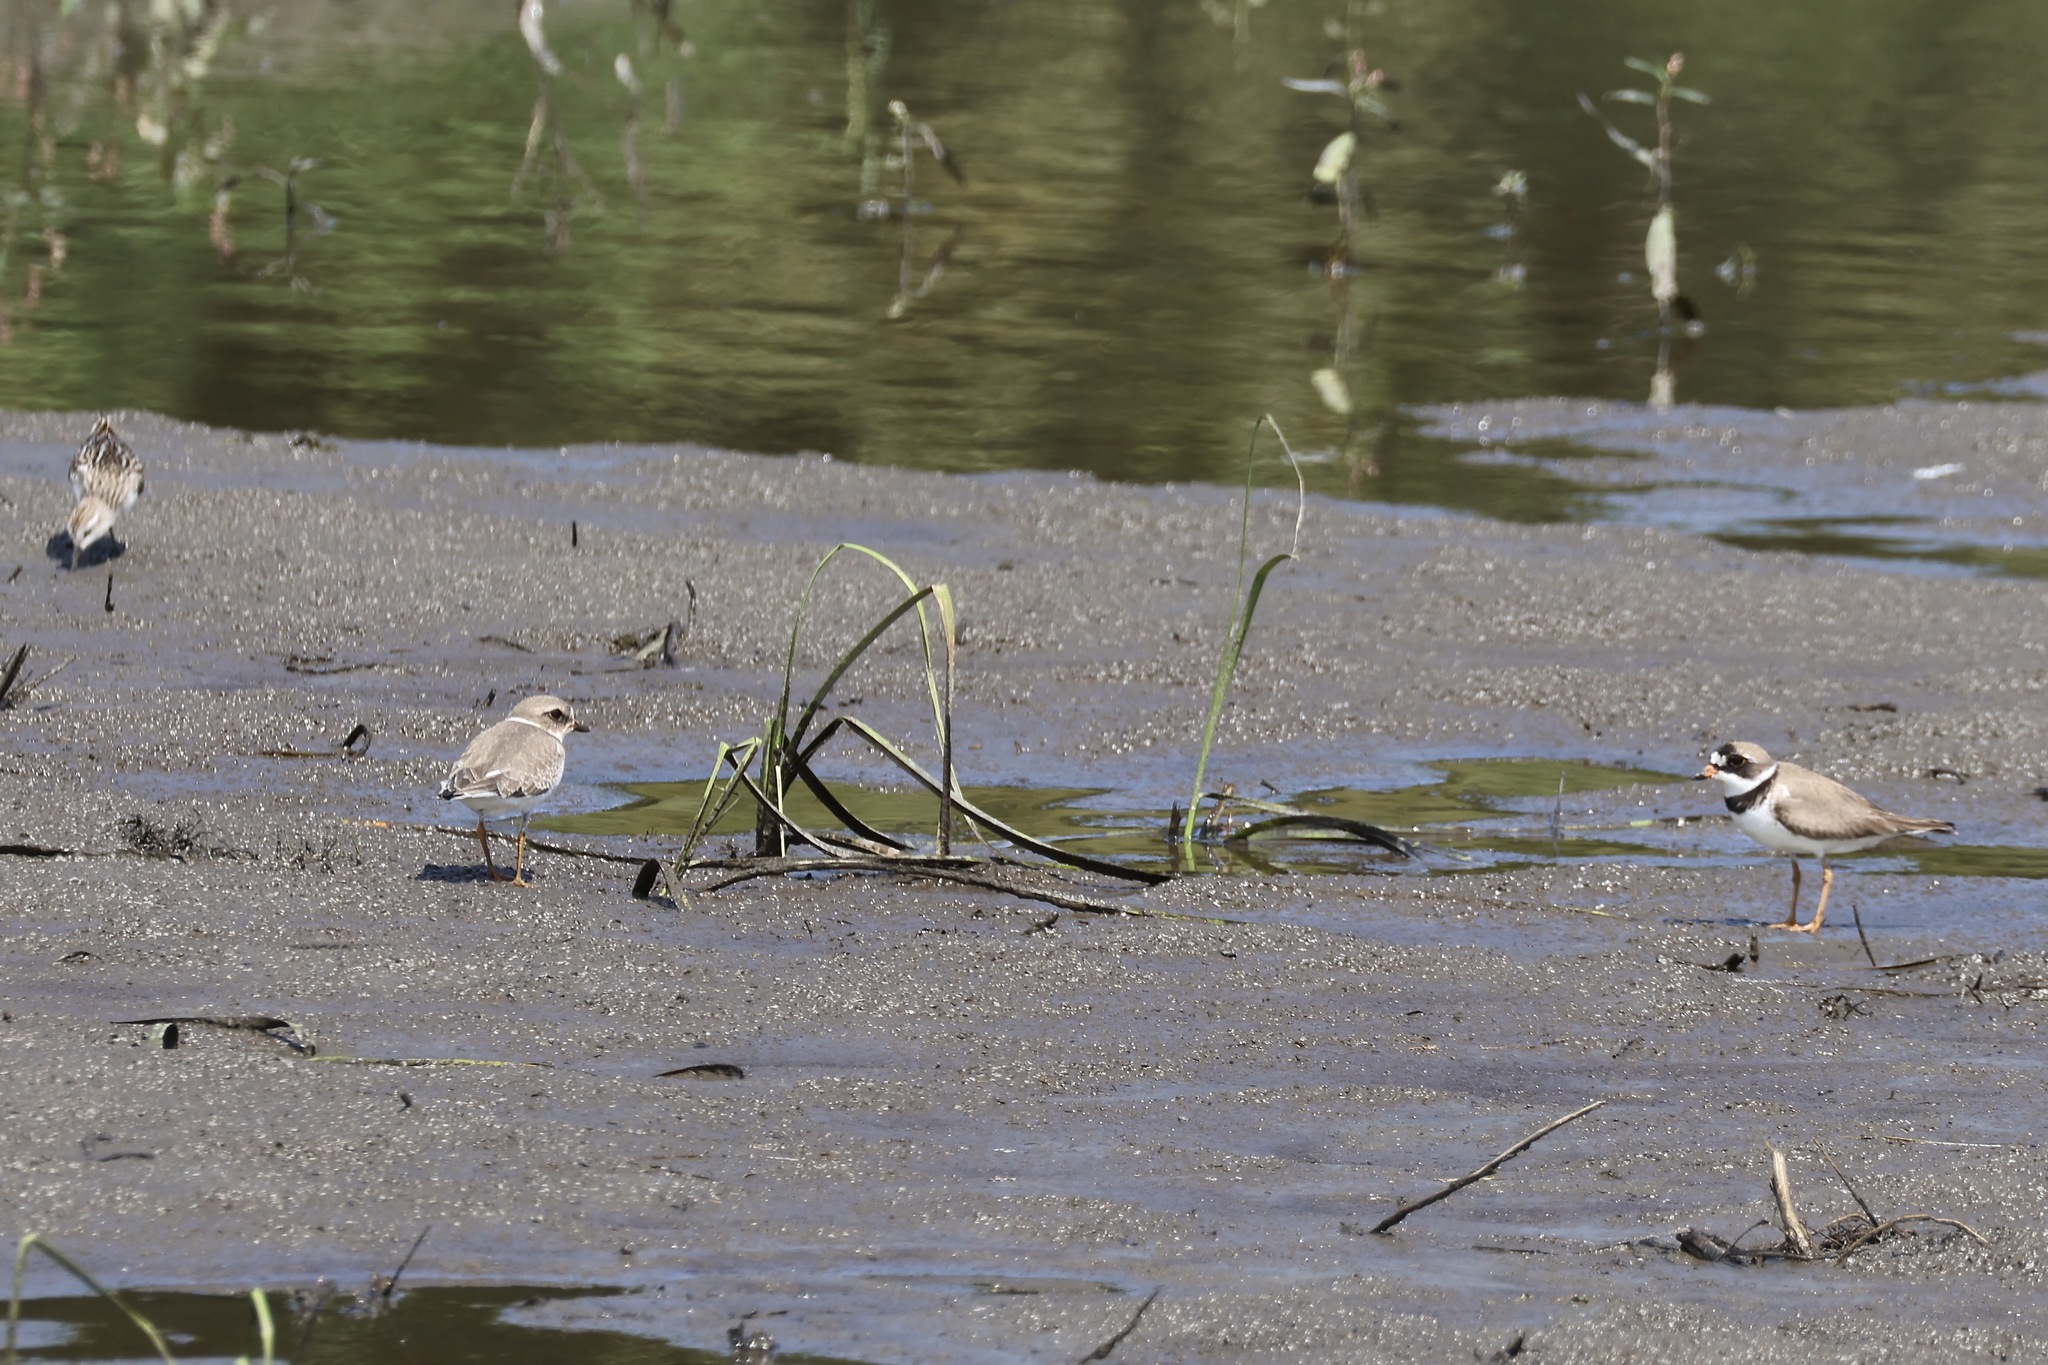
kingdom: Animalia
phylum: Chordata
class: Aves
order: Charadriiformes
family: Charadriidae
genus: Charadrius
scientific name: Charadrius semipalmatus
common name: Semipalmated plover
